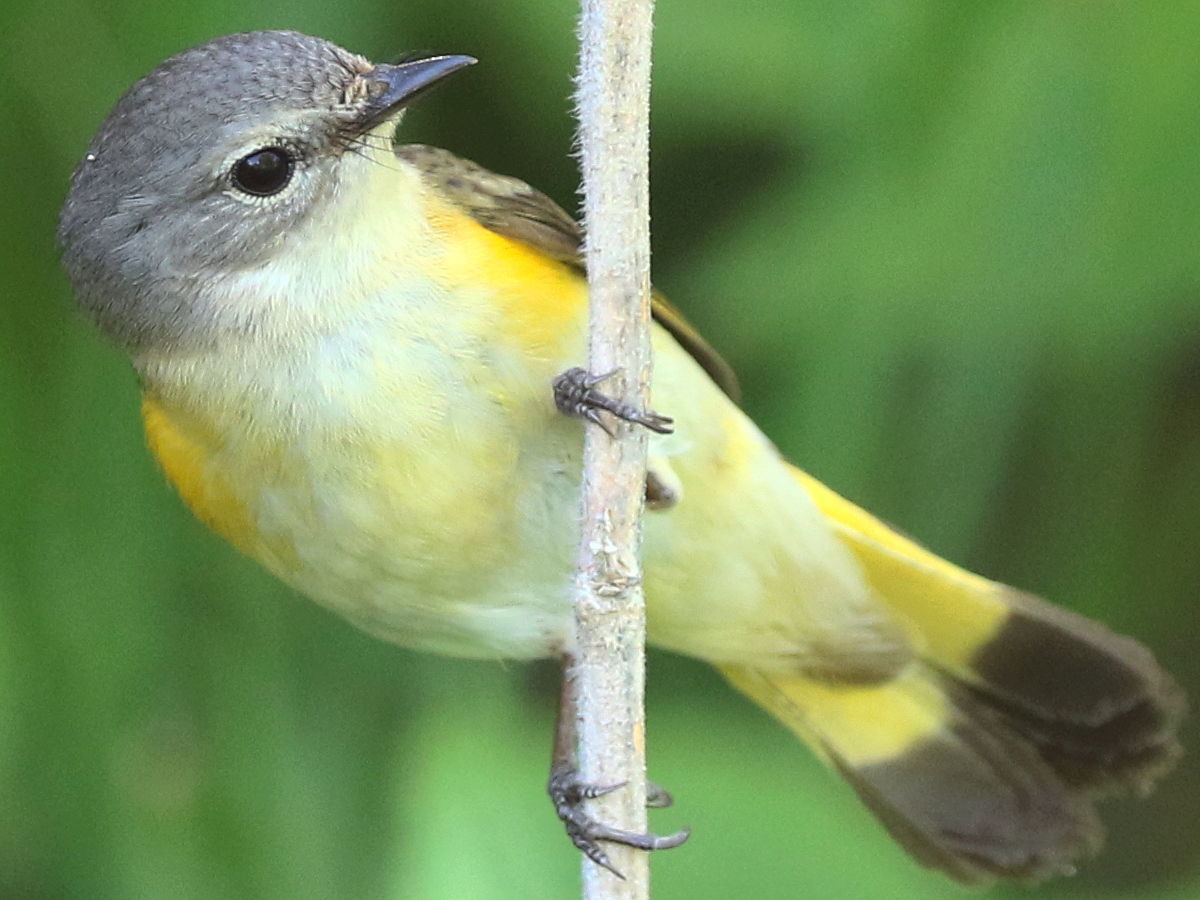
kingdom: Animalia
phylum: Chordata
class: Aves
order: Passeriformes
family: Parulidae
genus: Setophaga
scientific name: Setophaga ruticilla
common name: American redstart
